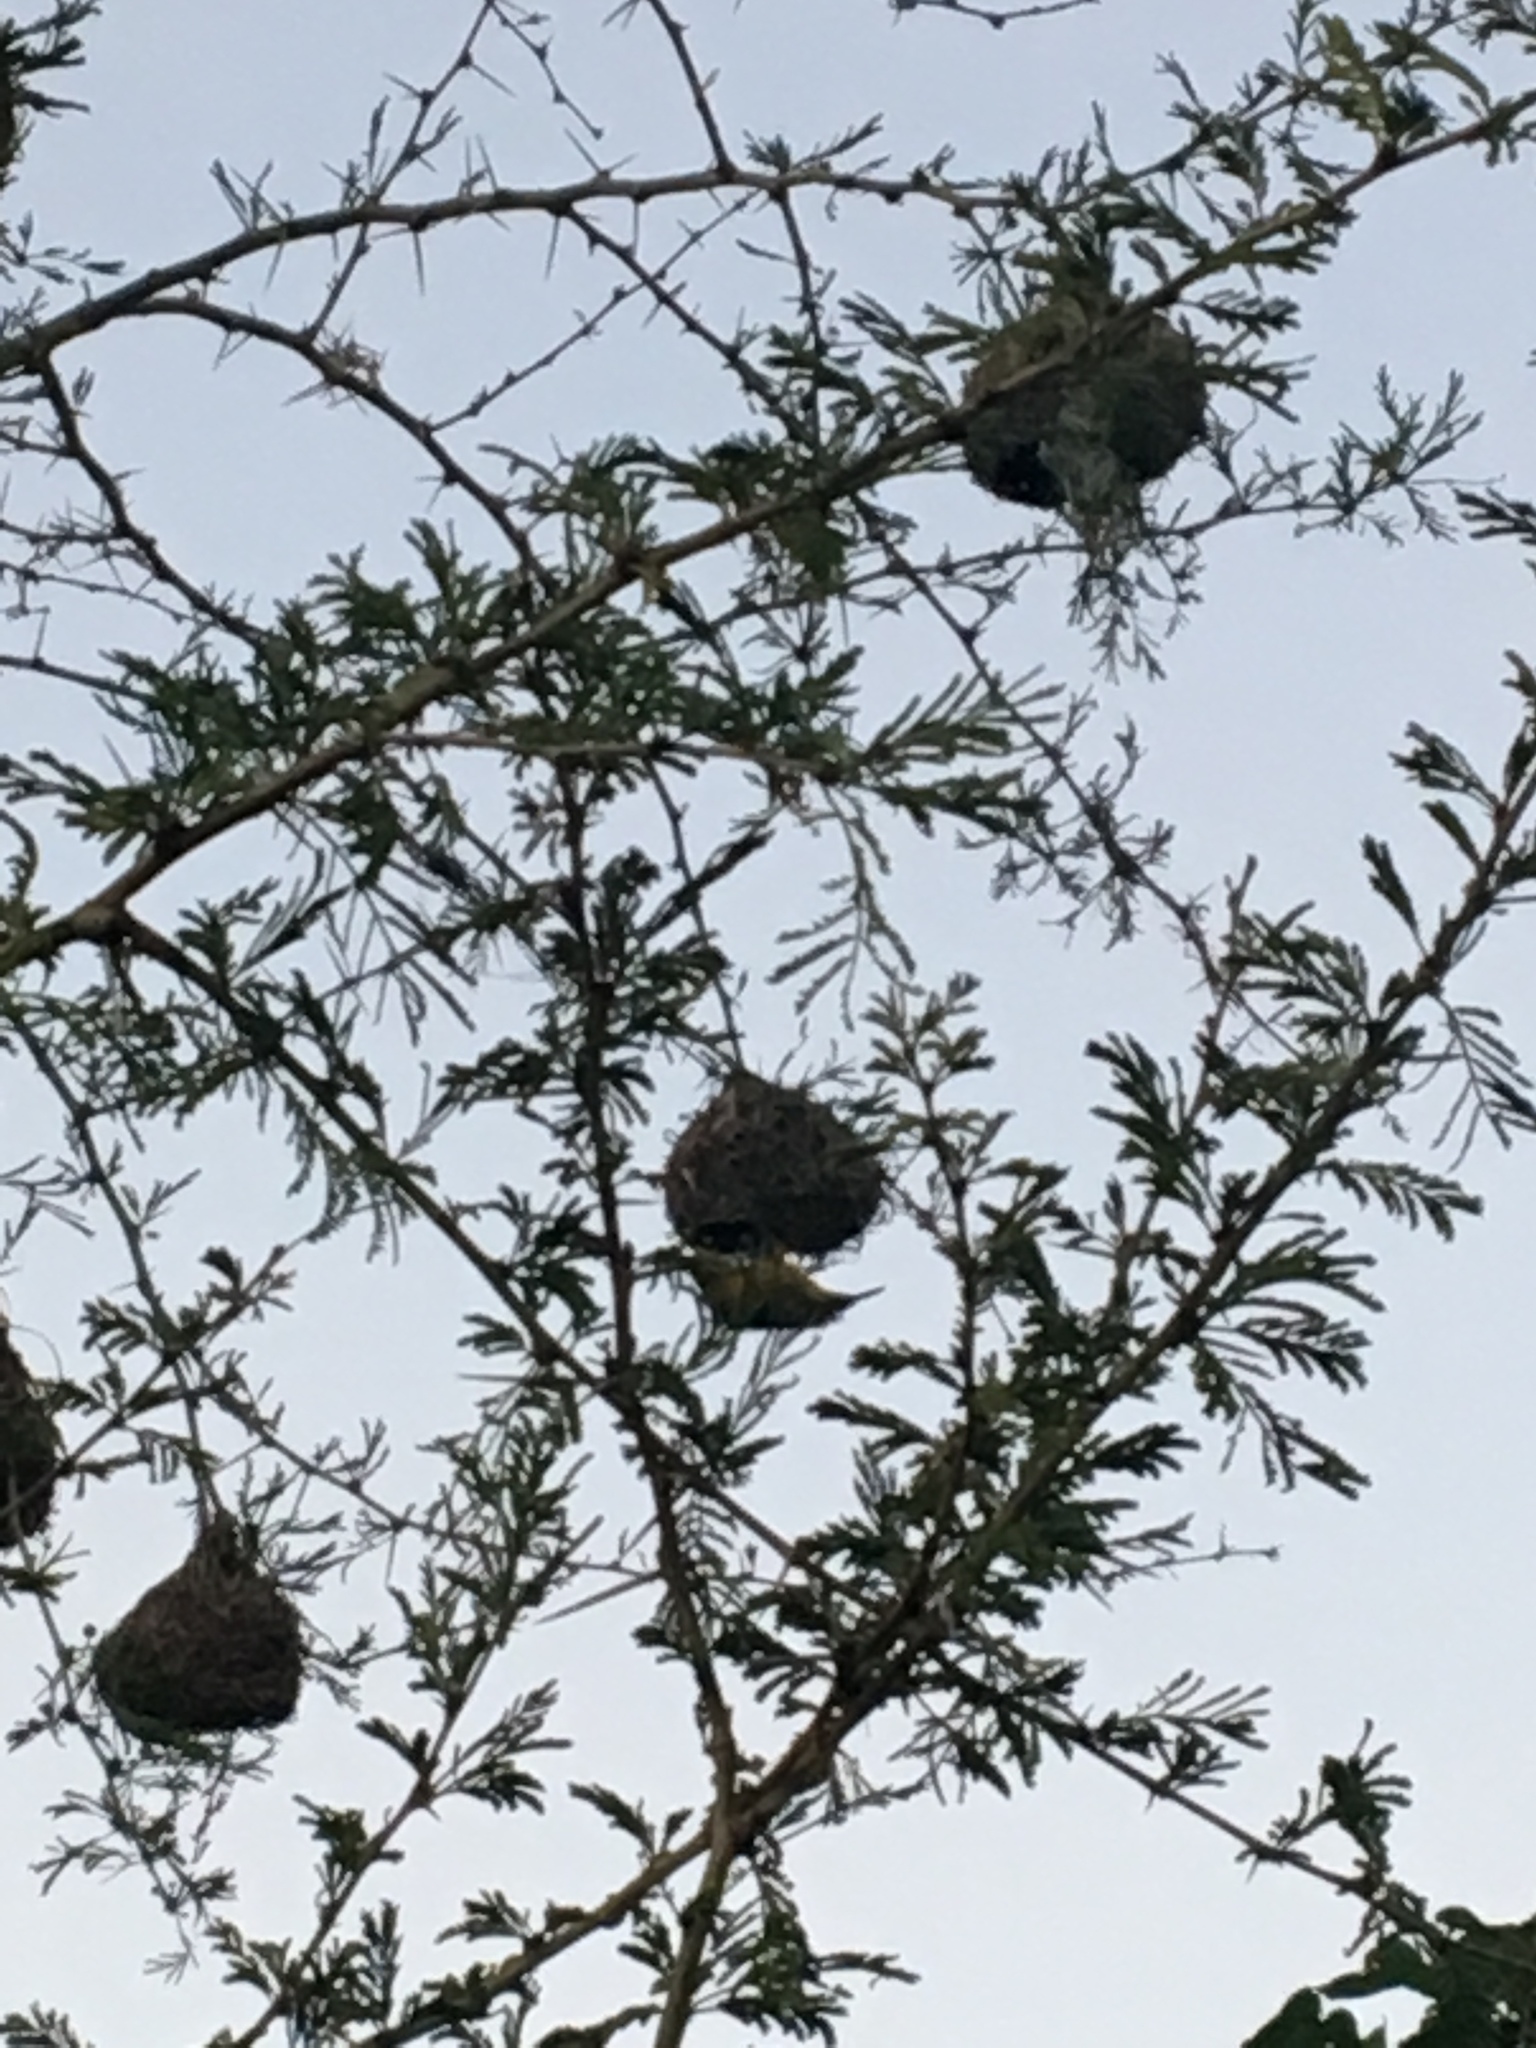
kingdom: Animalia
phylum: Chordata
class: Aves
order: Passeriformes
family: Ploceidae
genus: Ploceus
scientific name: Ploceus capensis
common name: Cape weaver
